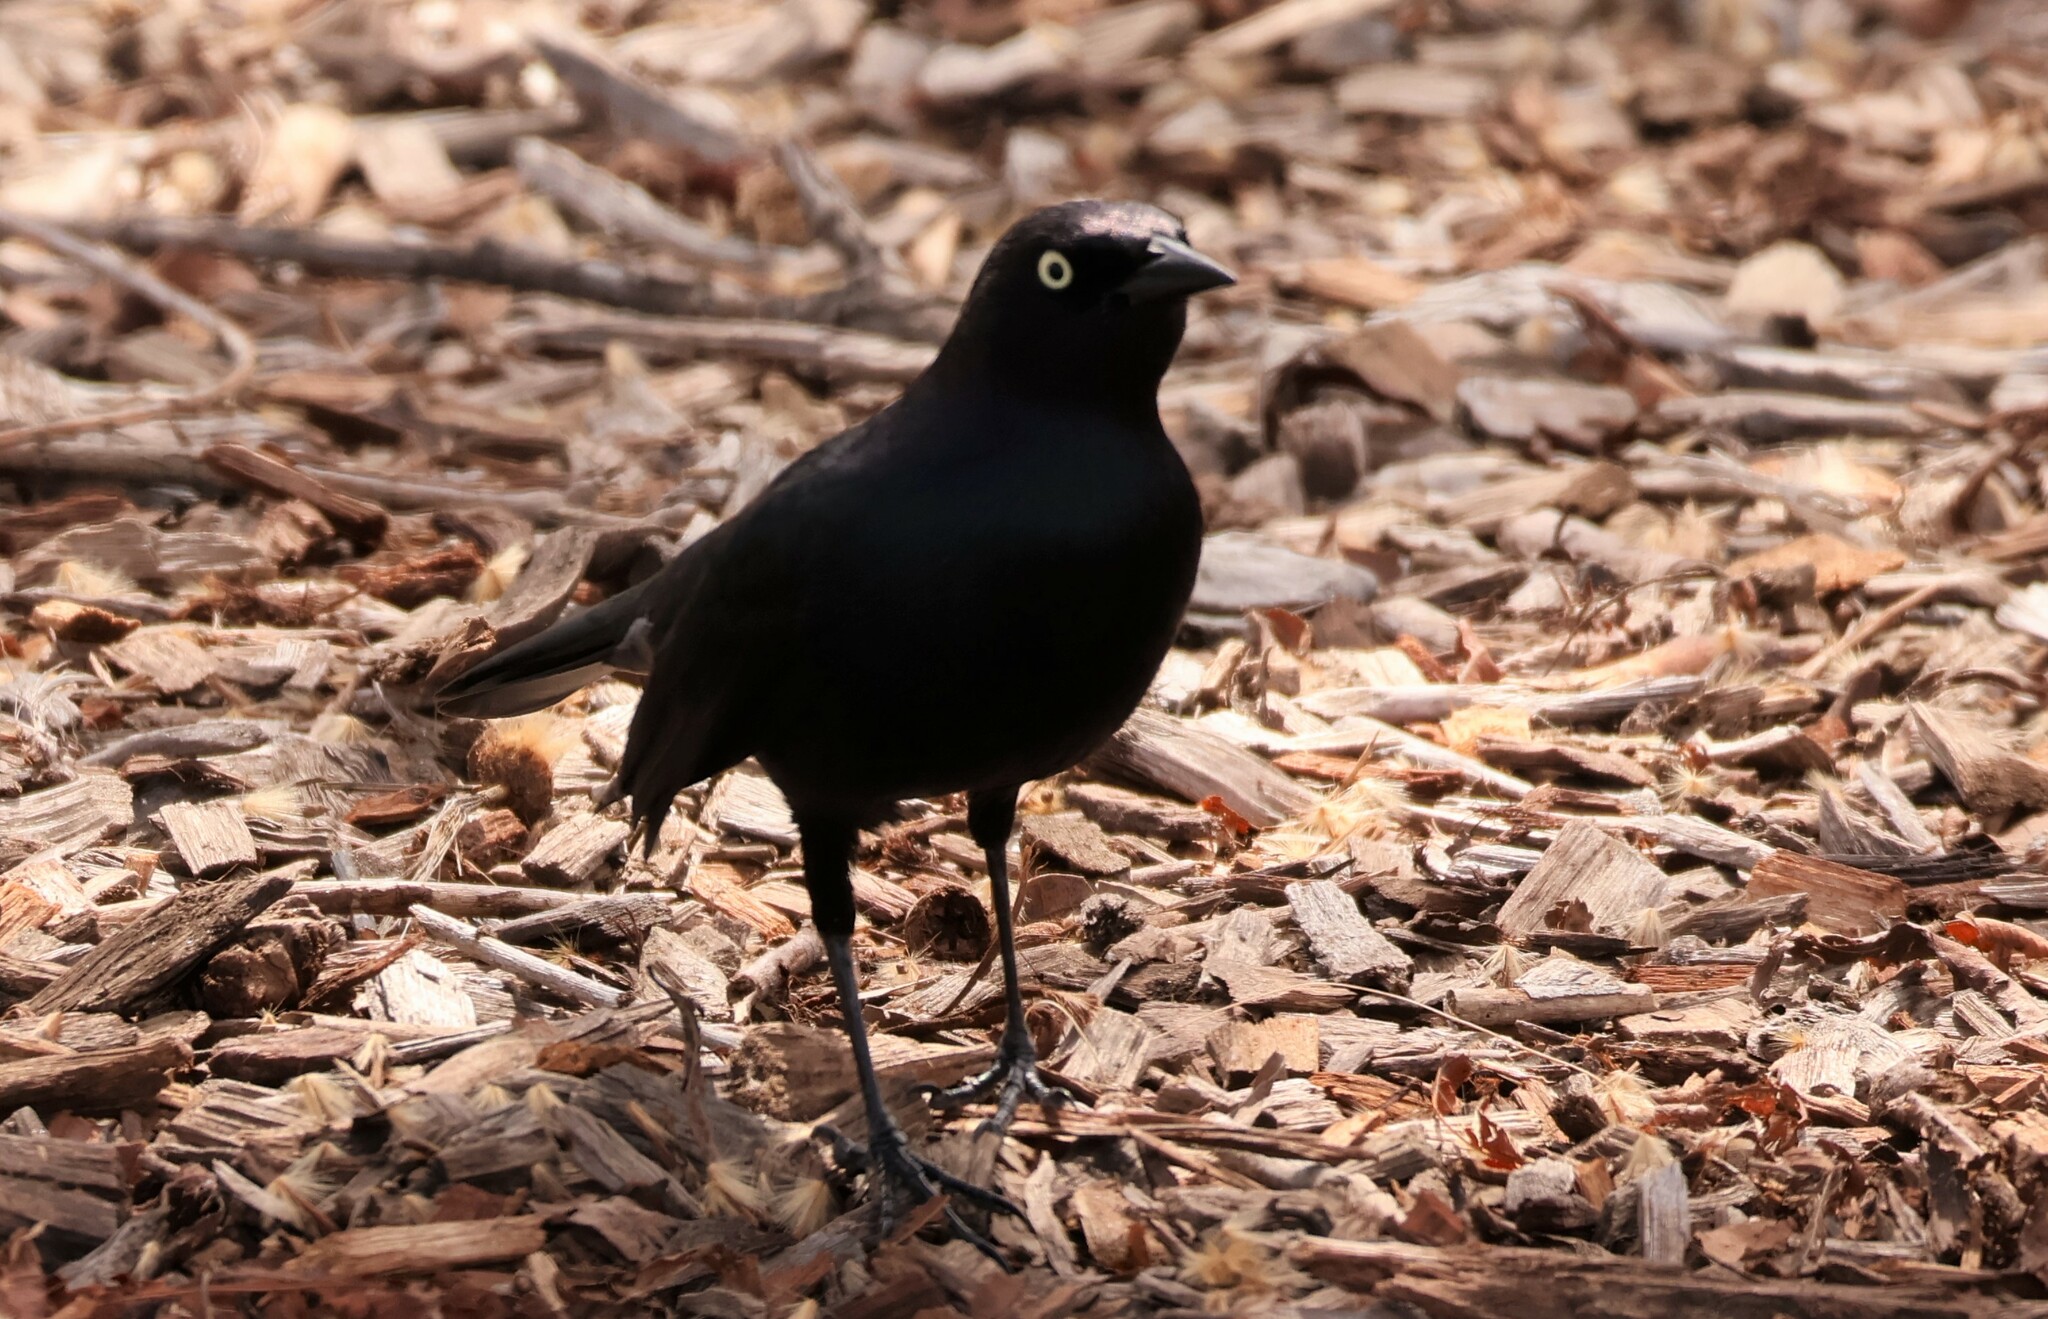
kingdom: Animalia
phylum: Chordata
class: Aves
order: Passeriformes
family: Icteridae
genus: Euphagus
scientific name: Euphagus cyanocephalus
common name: Brewer's blackbird
